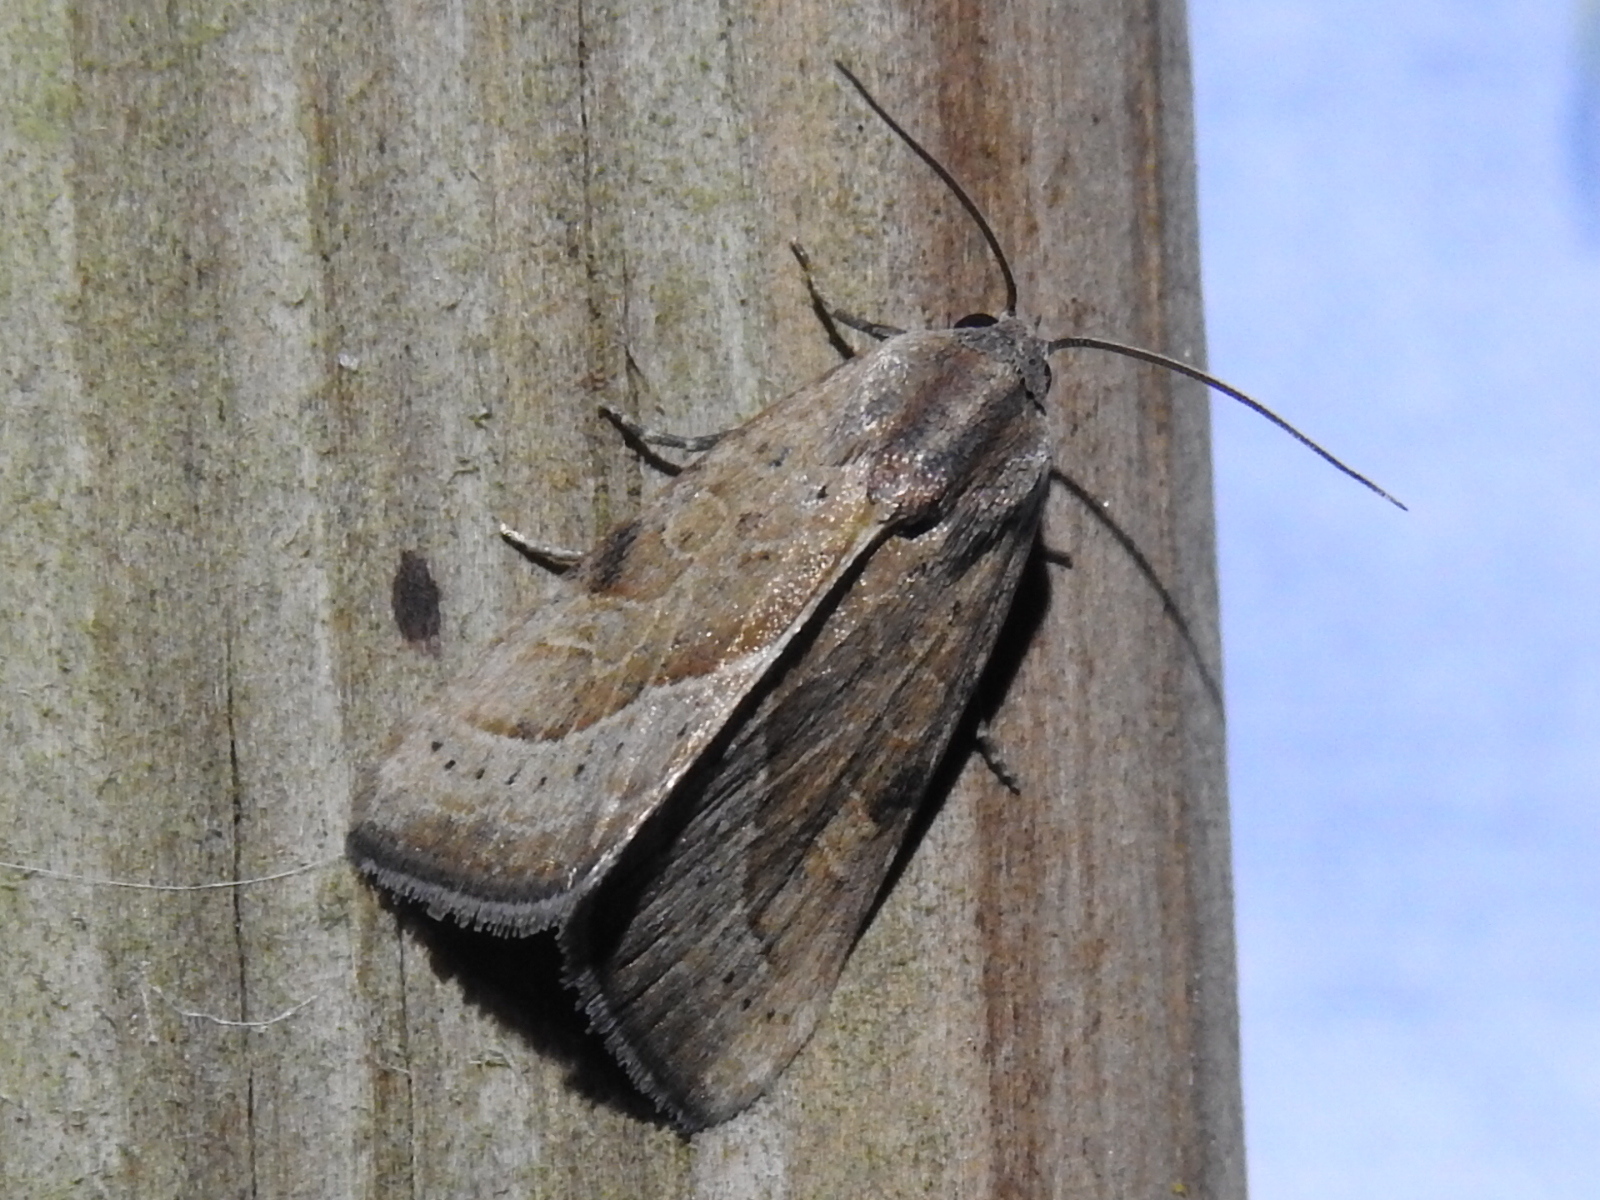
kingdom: Animalia
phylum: Arthropoda
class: Insecta
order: Lepidoptera
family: Noctuidae
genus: Galgula
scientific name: Galgula partita
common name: Wedgeling
